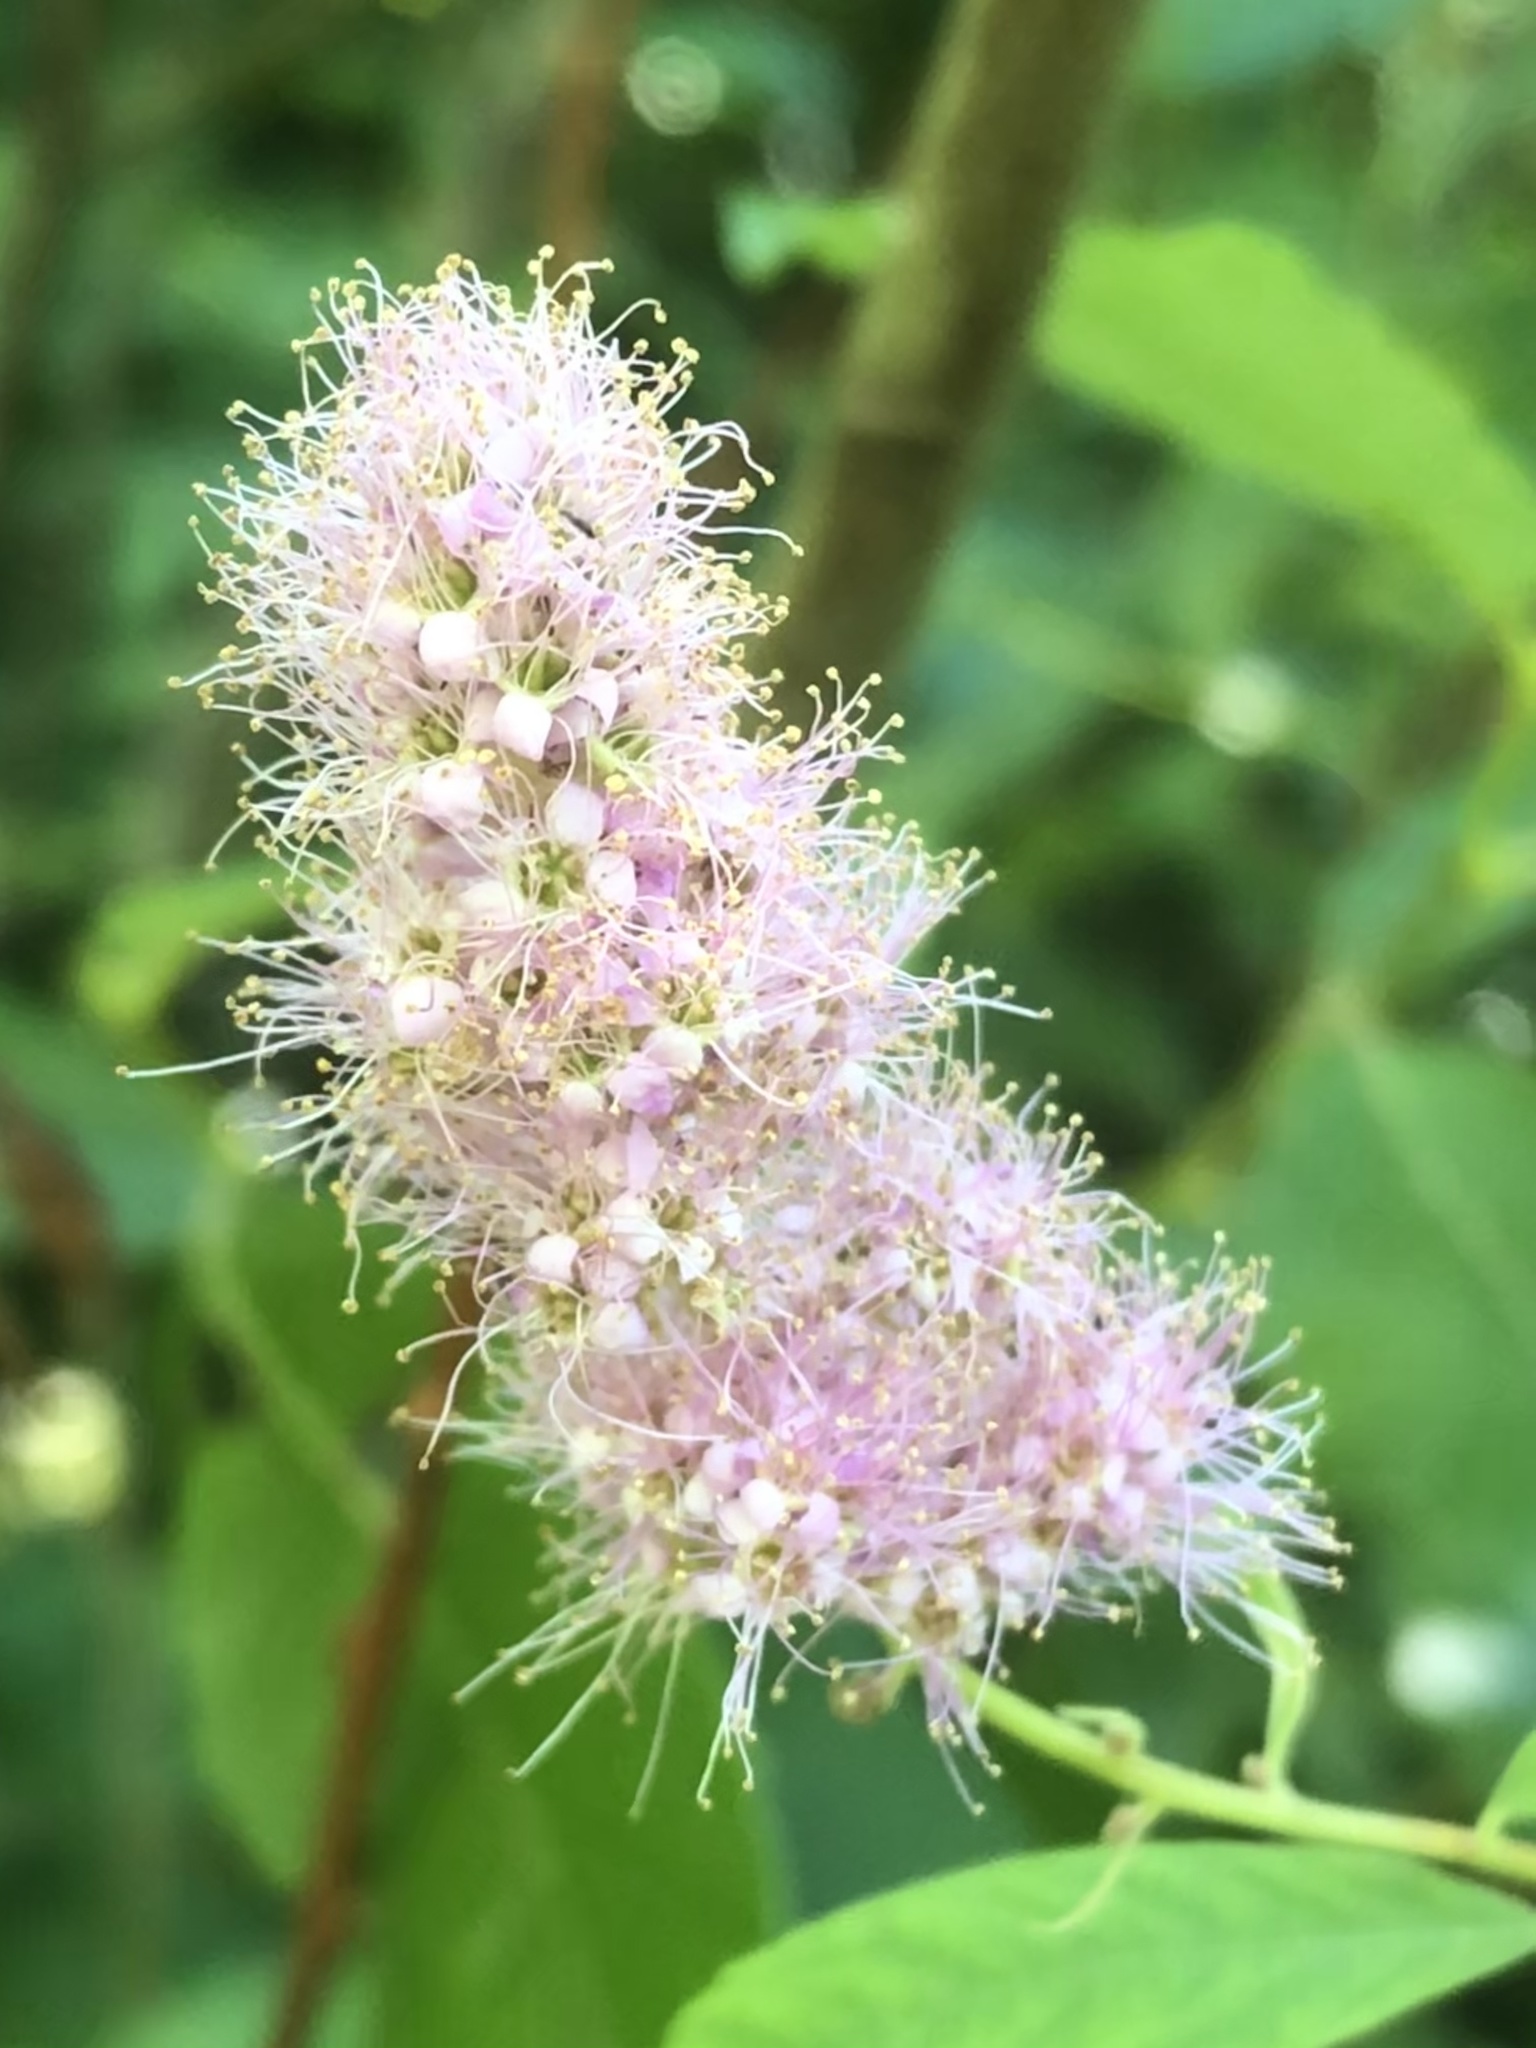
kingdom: Plantae
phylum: Tracheophyta
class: Magnoliopsida
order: Rosales
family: Rosaceae
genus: Spiraea
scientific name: Spiraea douglasii
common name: Steeplebush
